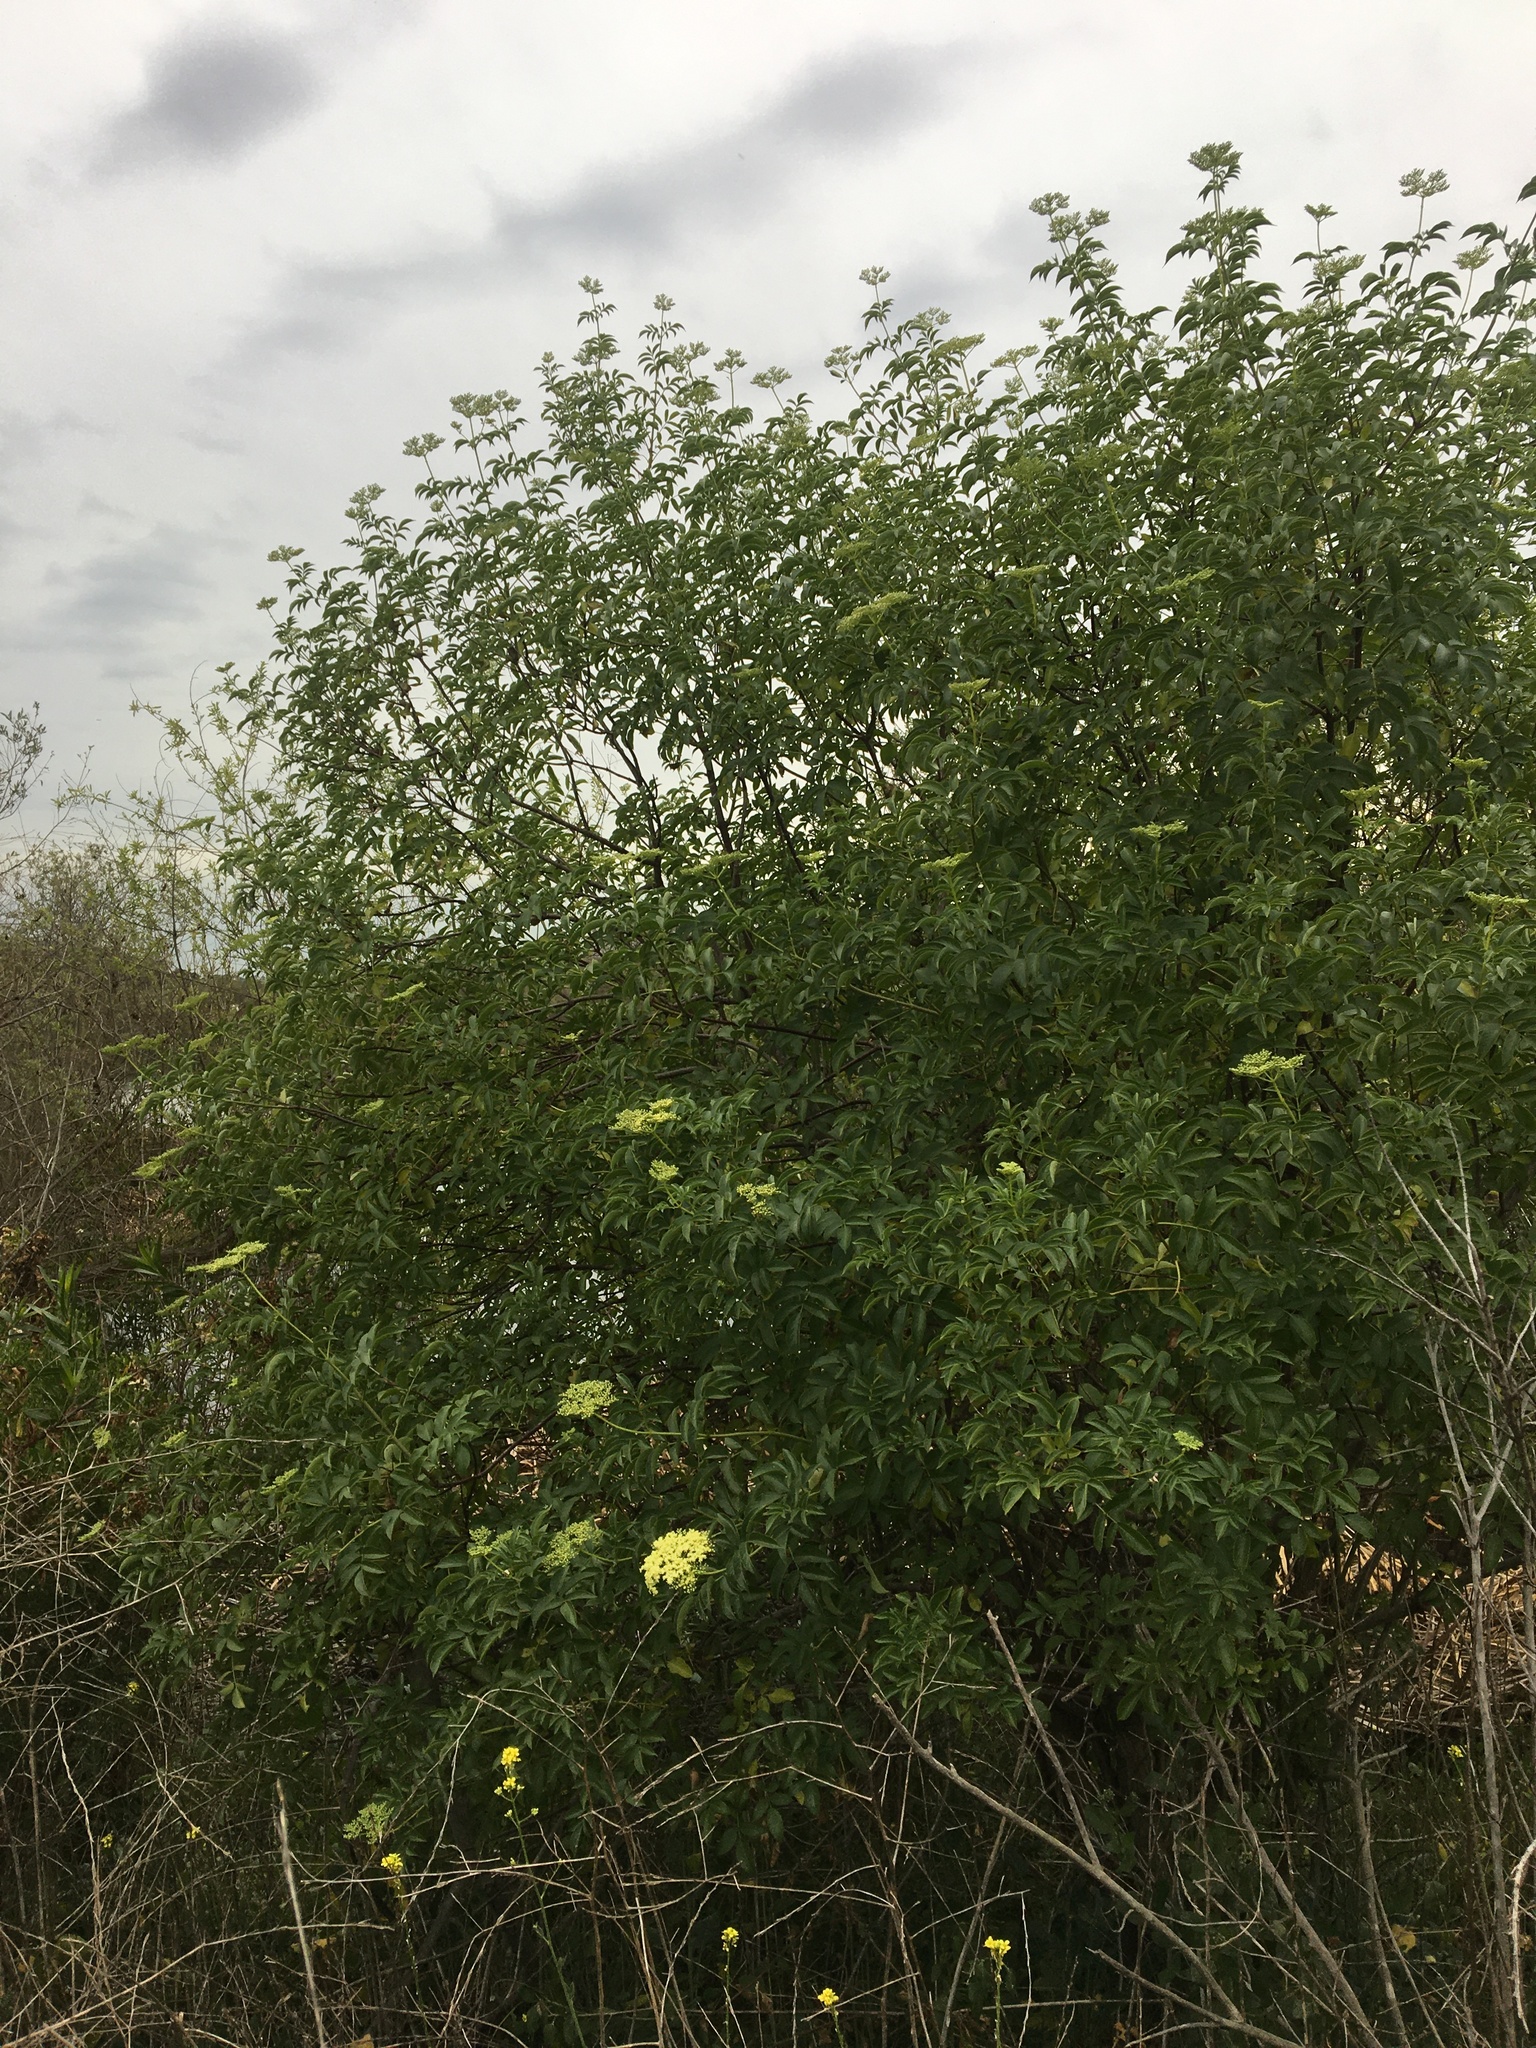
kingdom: Plantae
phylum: Tracheophyta
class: Magnoliopsida
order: Dipsacales
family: Viburnaceae
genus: Sambucus
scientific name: Sambucus cerulea
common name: Blue elder
